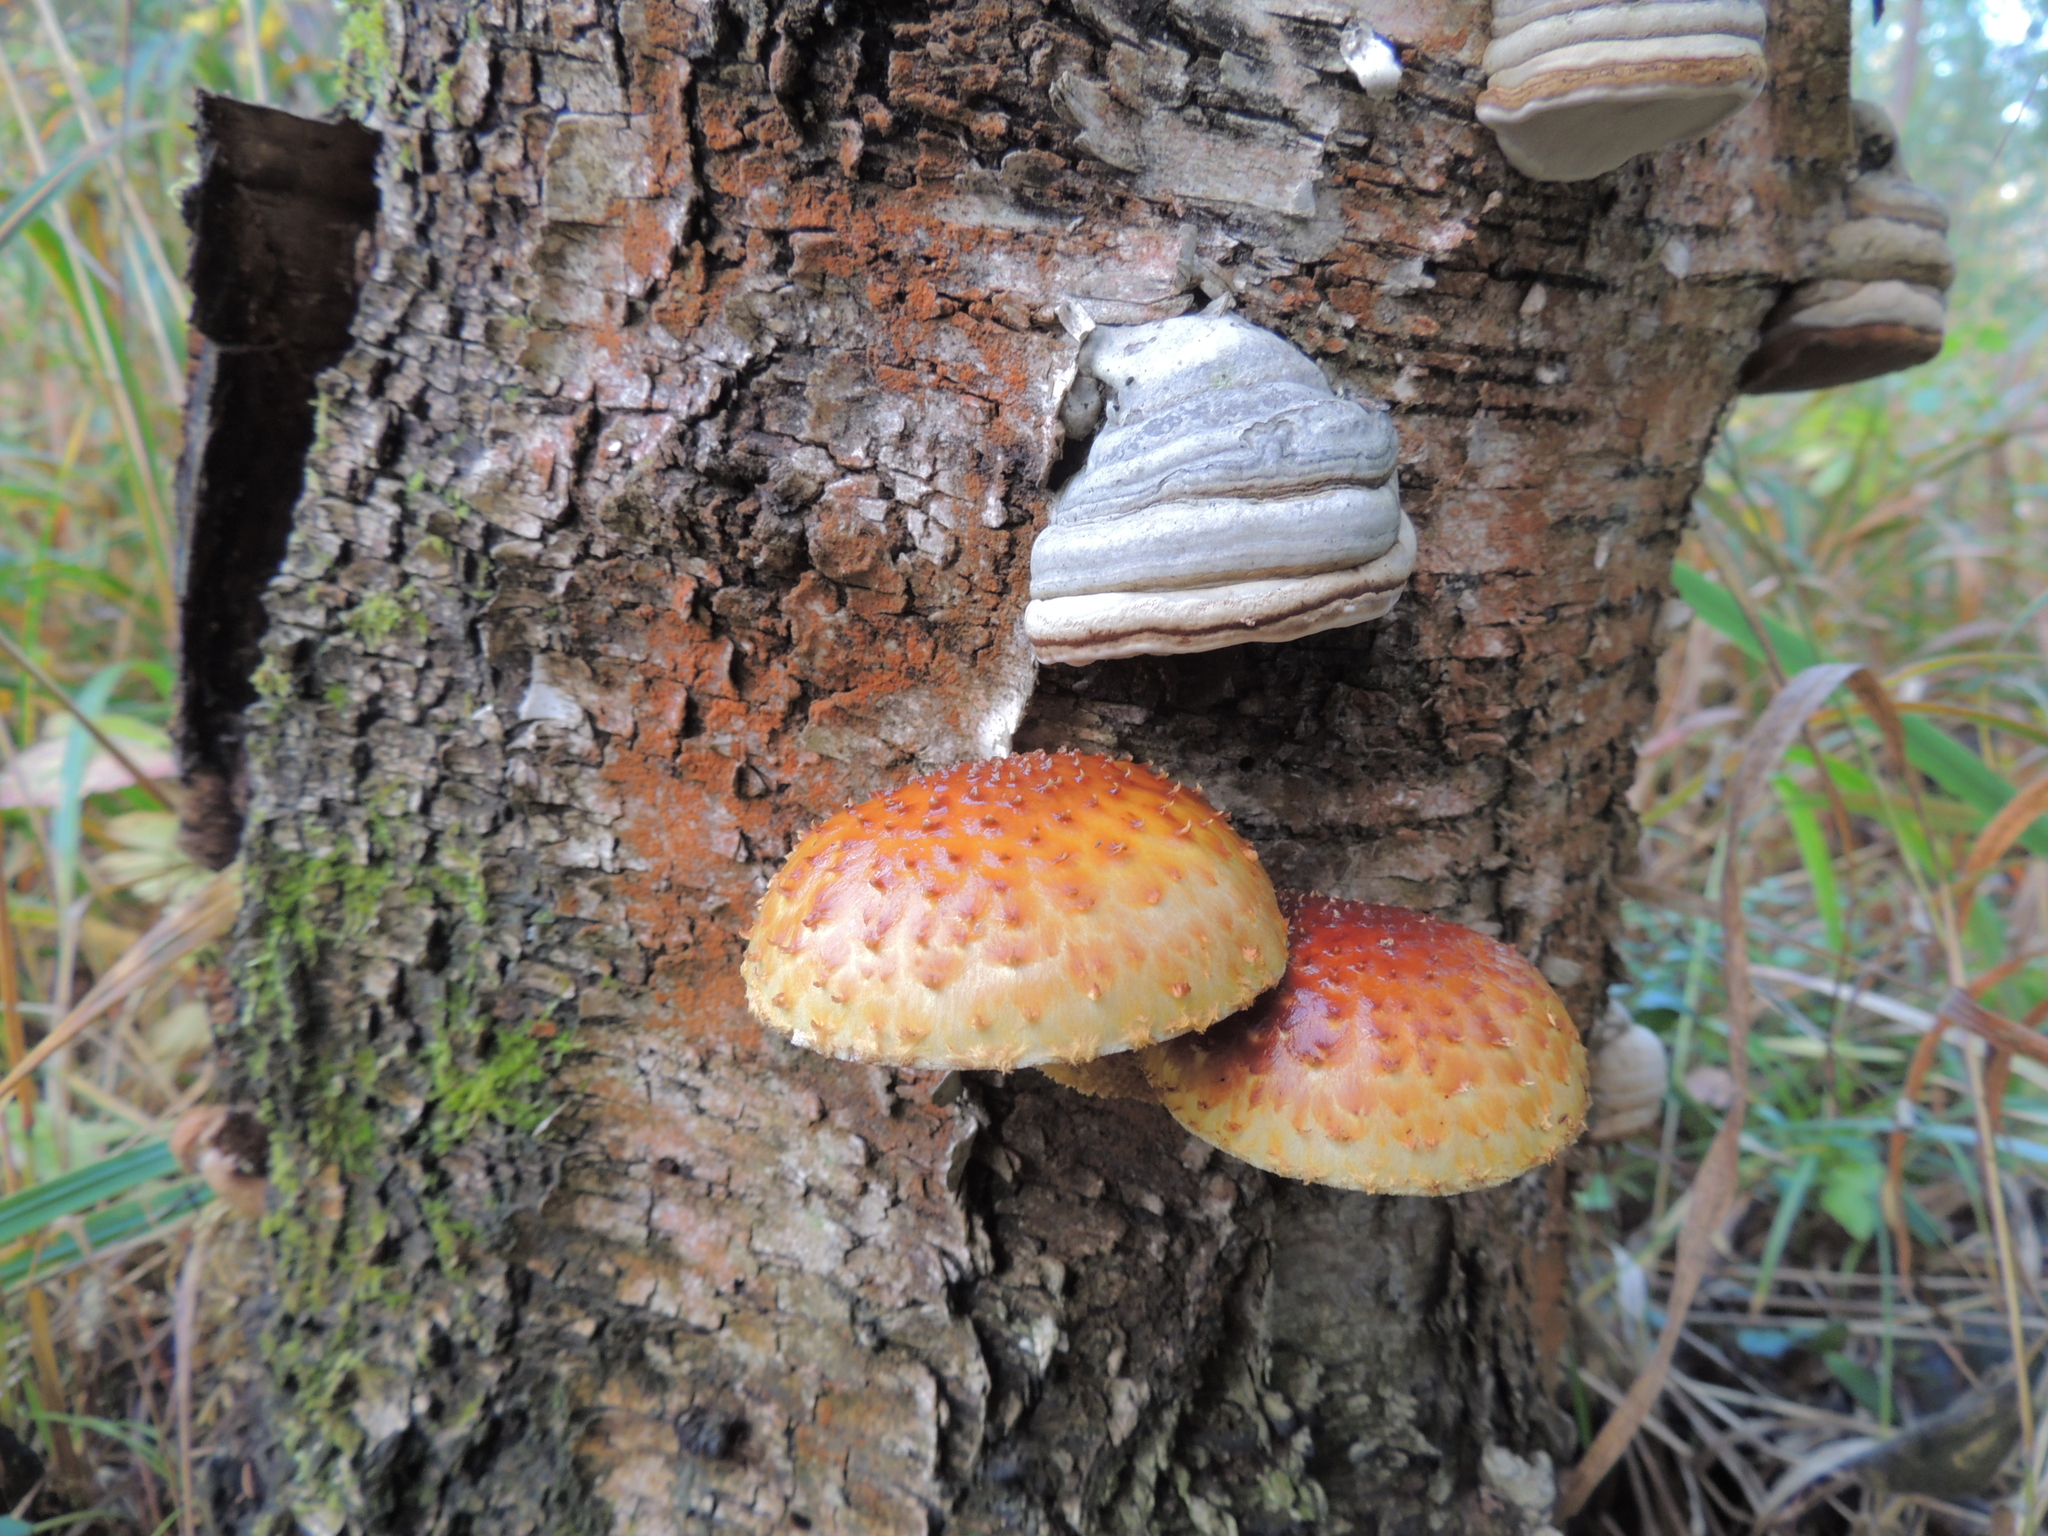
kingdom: Fungi
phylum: Basidiomycota
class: Agaricomycetes
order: Agaricales
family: Strophariaceae
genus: Pholiota
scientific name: Pholiota aurivella
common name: Golden scalycap
